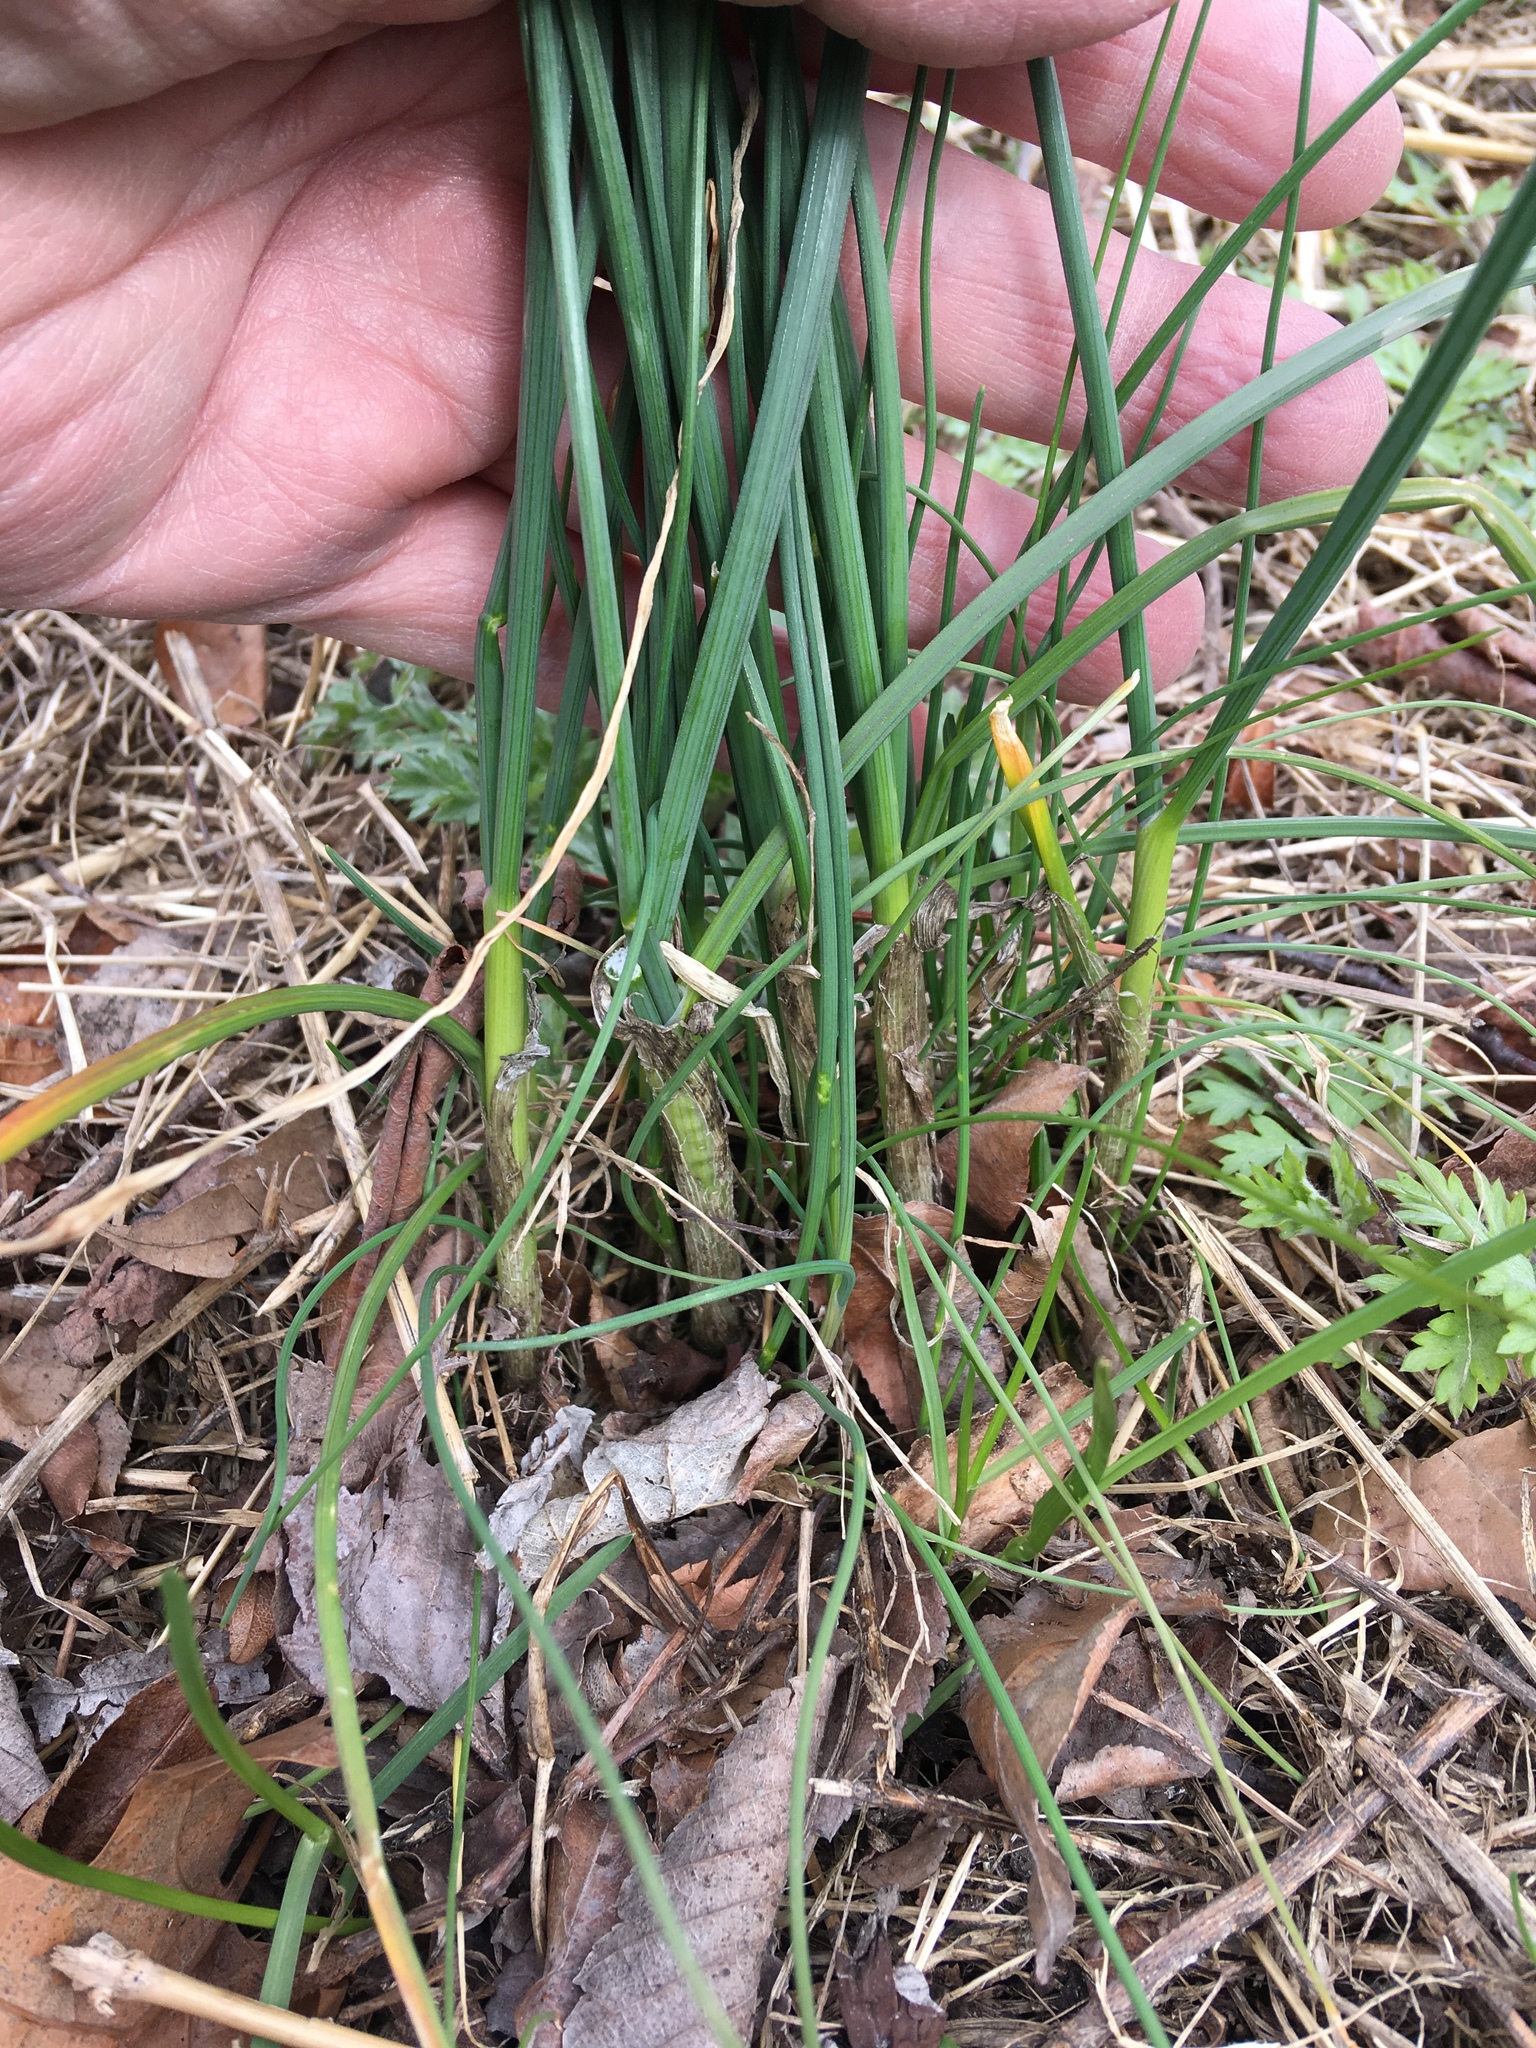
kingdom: Plantae
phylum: Tracheophyta
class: Liliopsida
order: Asparagales
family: Amaryllidaceae
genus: Allium
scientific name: Allium vineale
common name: Crow garlic
